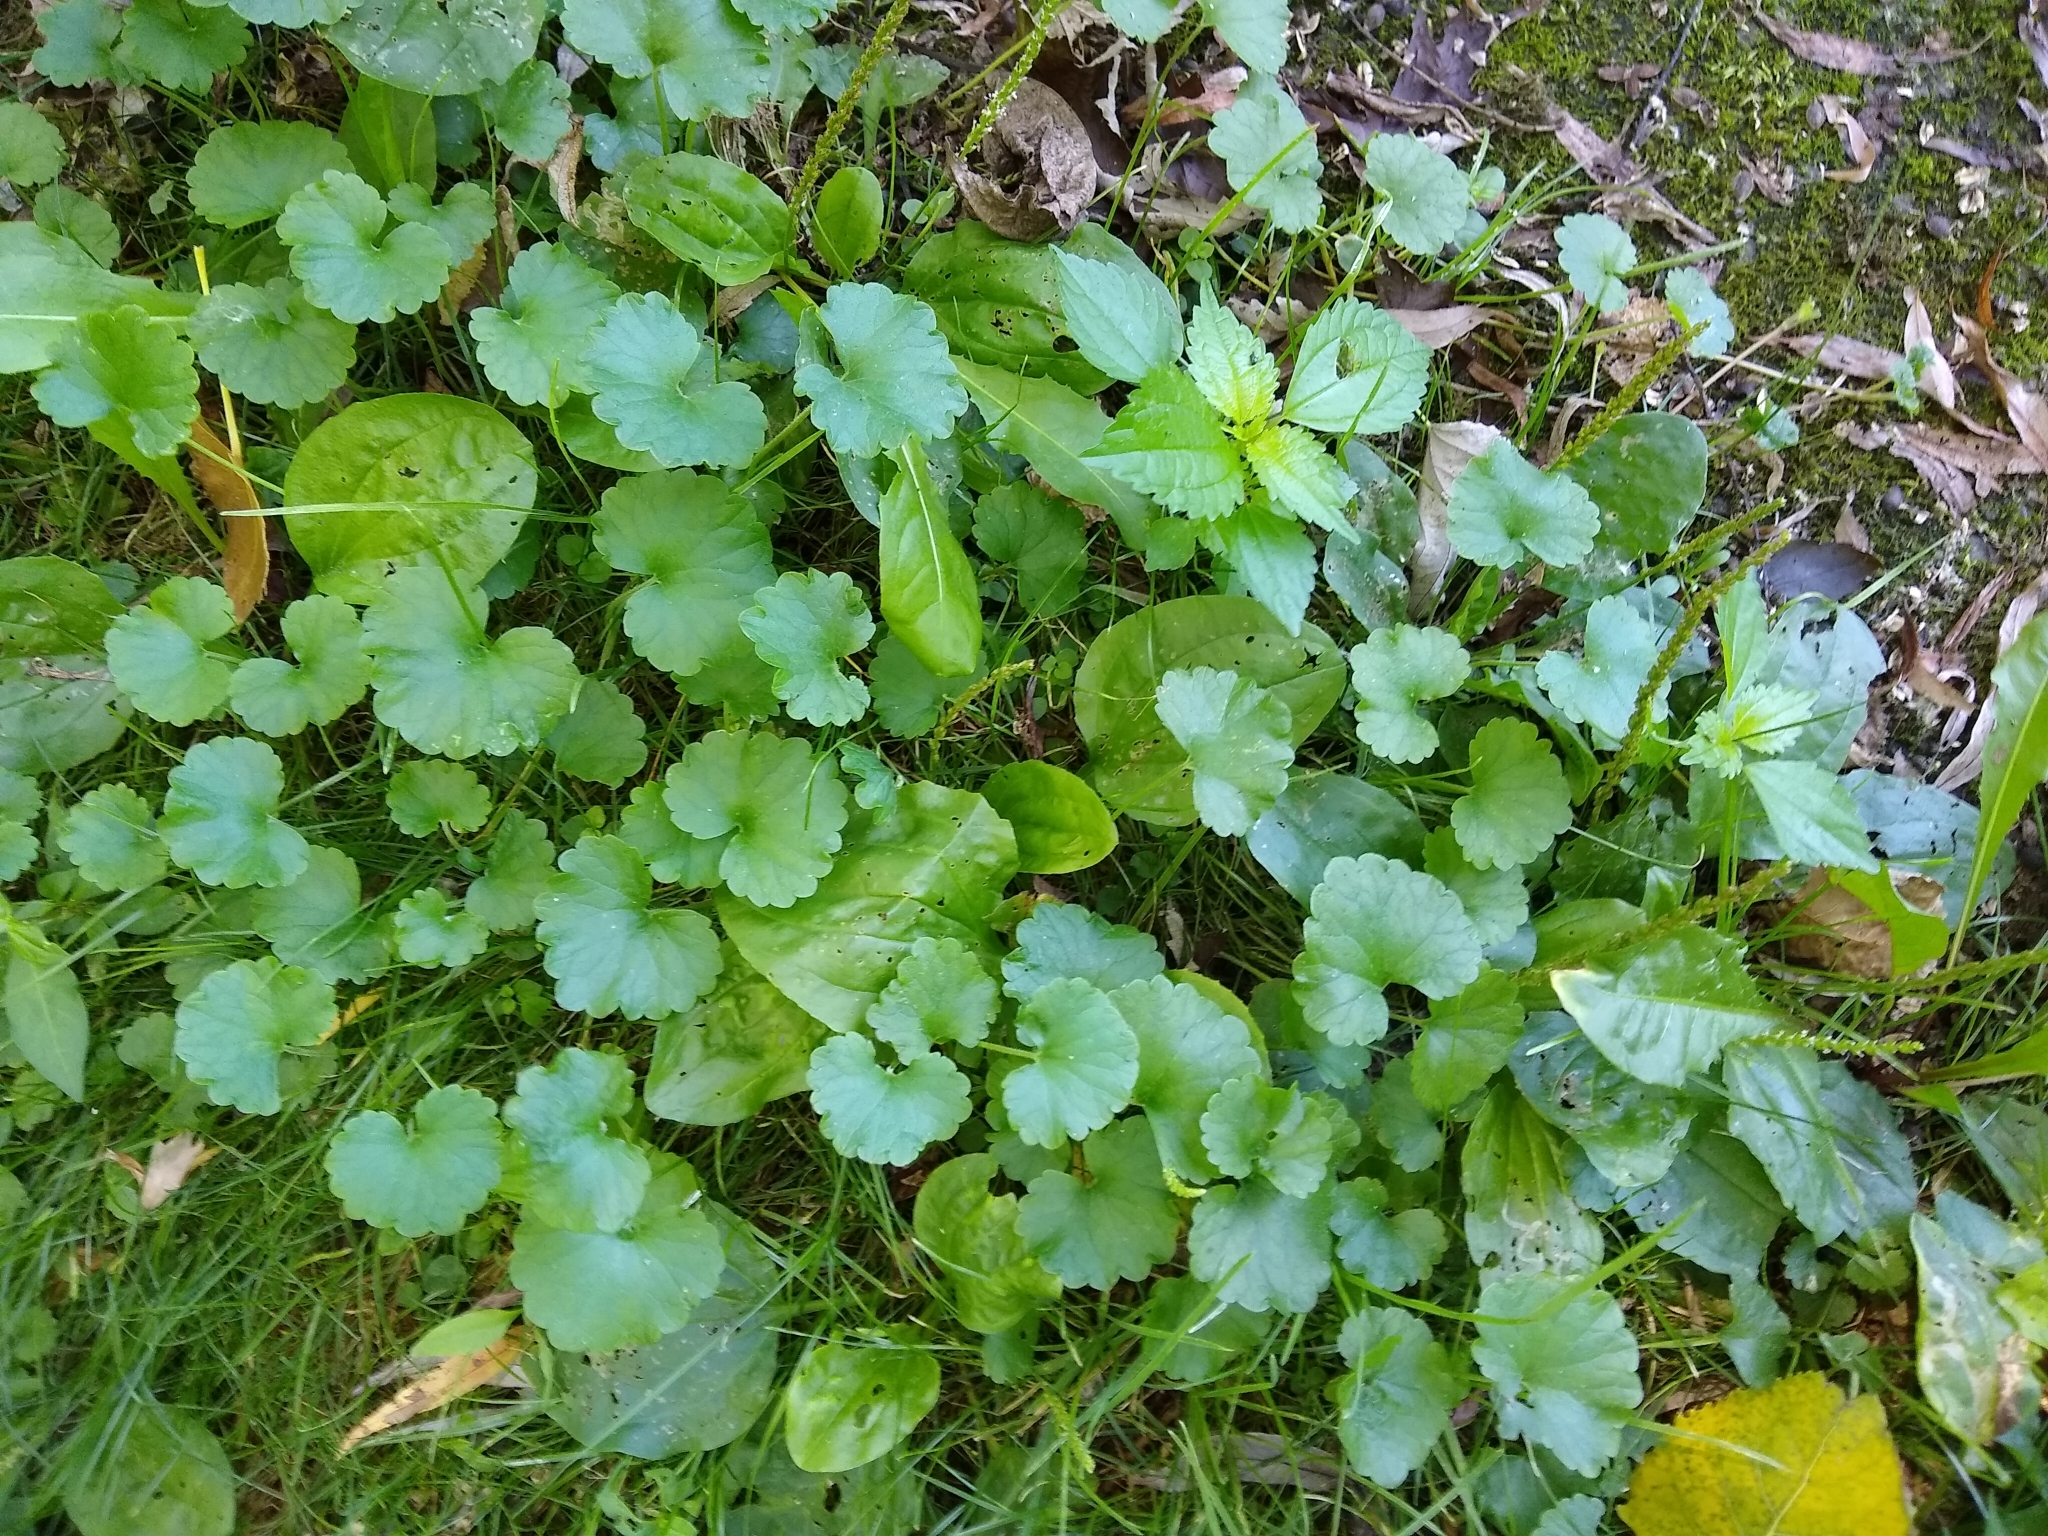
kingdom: Plantae
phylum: Tracheophyta
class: Magnoliopsida
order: Lamiales
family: Lamiaceae
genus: Glechoma
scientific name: Glechoma hederacea
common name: Ground ivy
